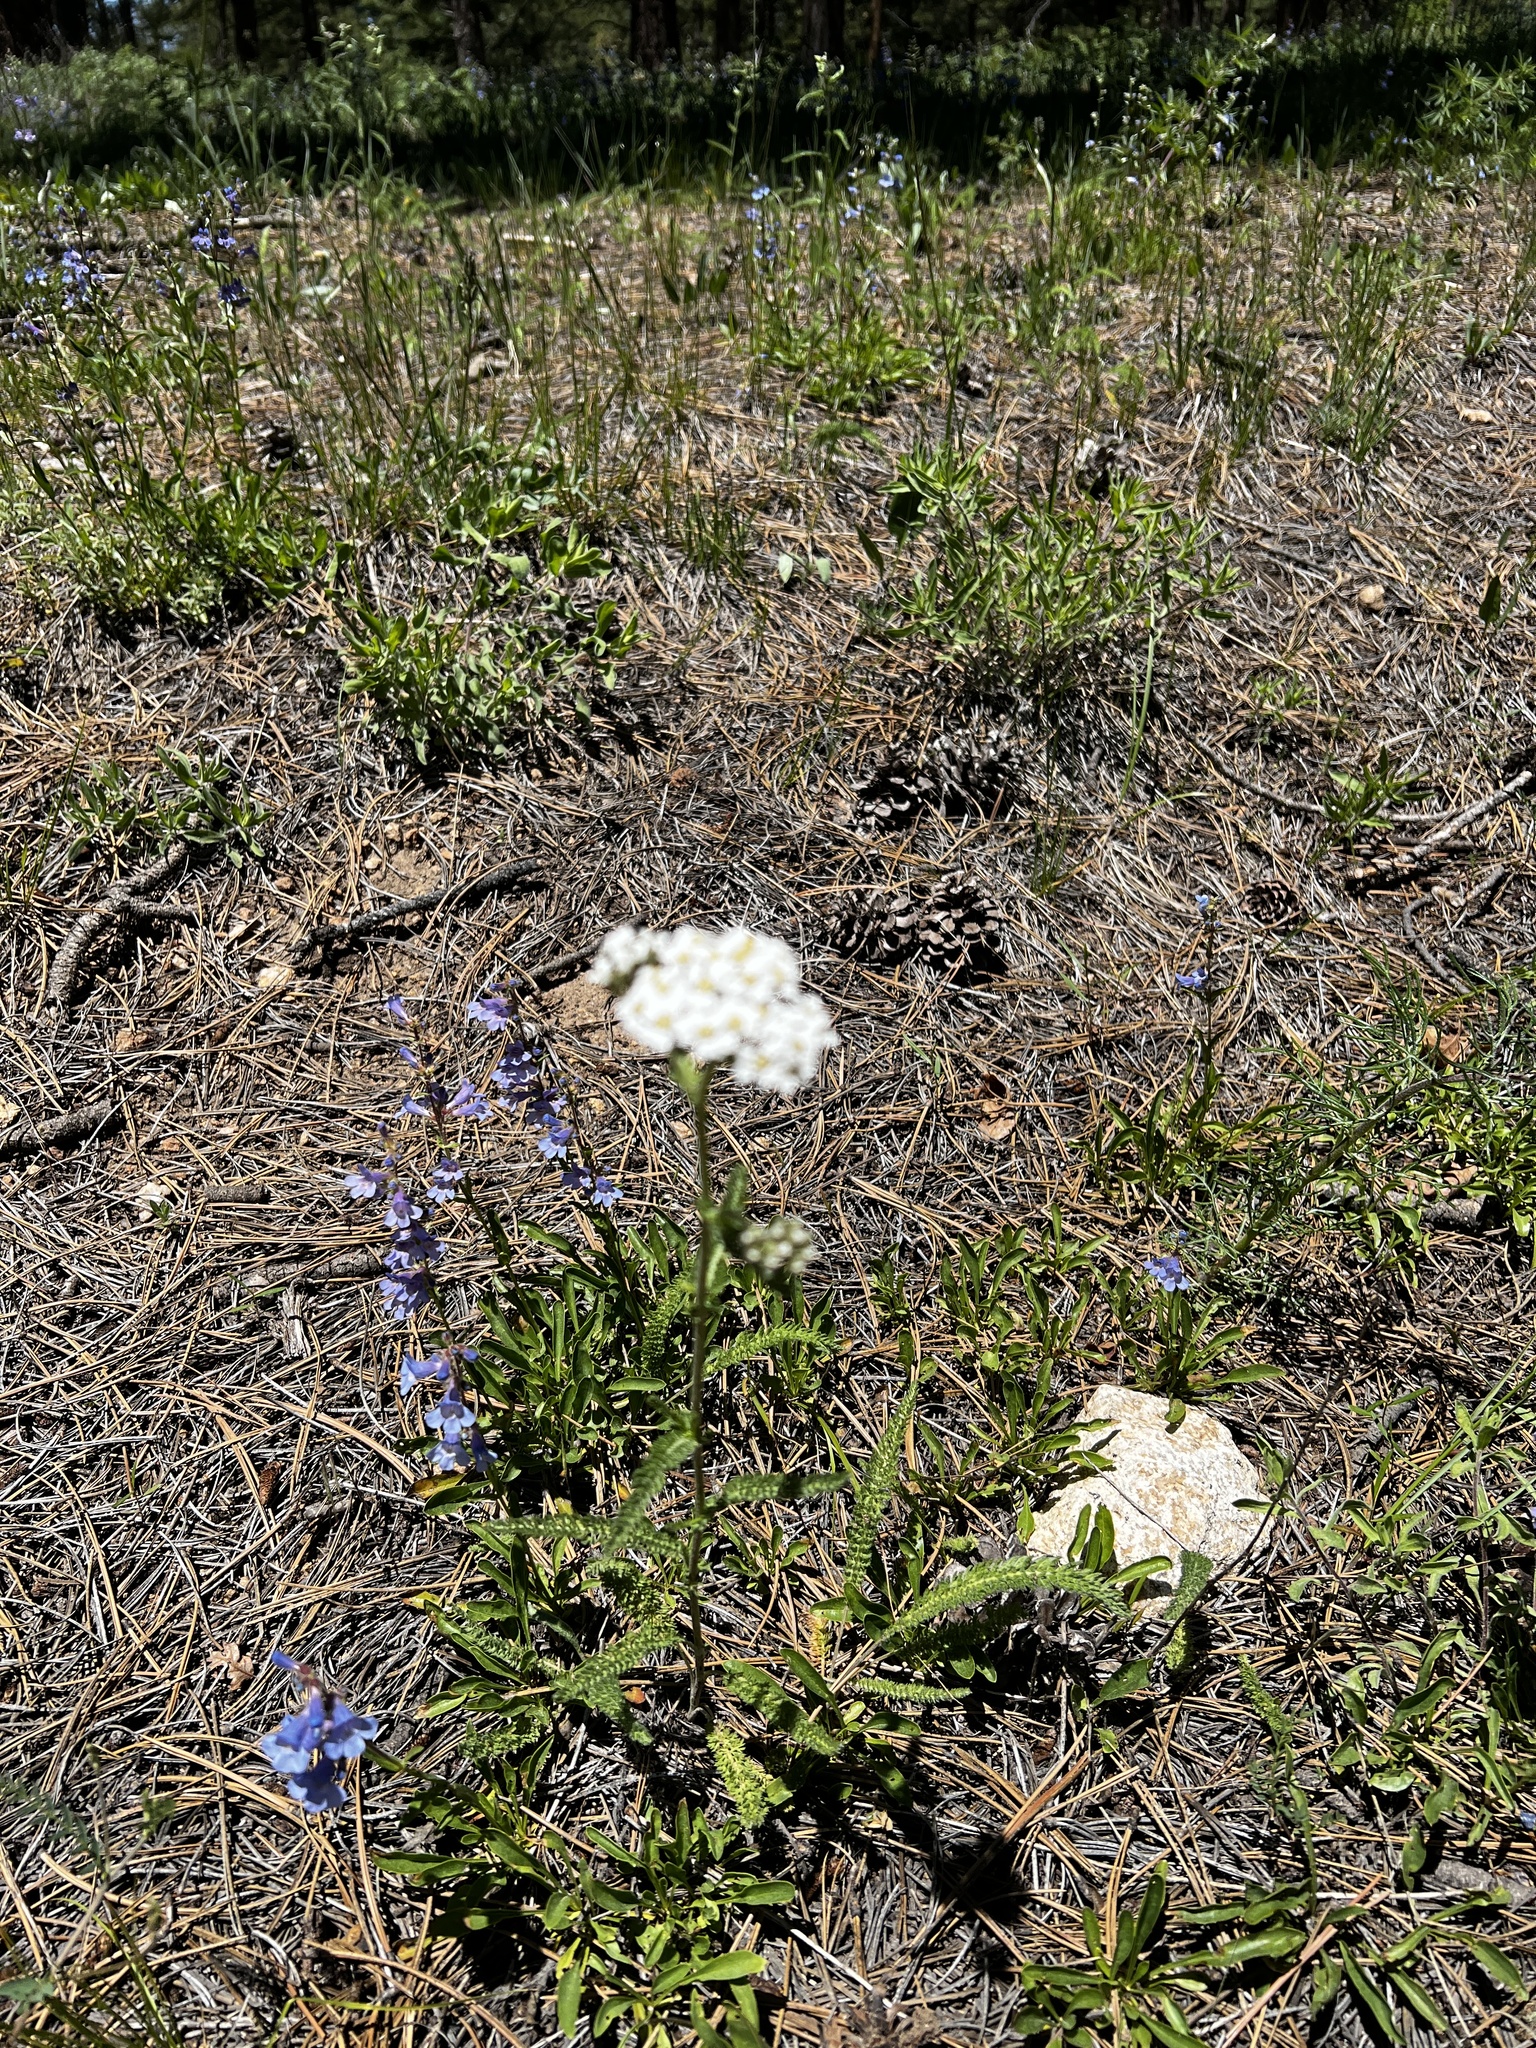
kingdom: Plantae
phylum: Tracheophyta
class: Magnoliopsida
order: Asterales
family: Asteraceae
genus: Achillea
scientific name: Achillea millefolium
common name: Yarrow
